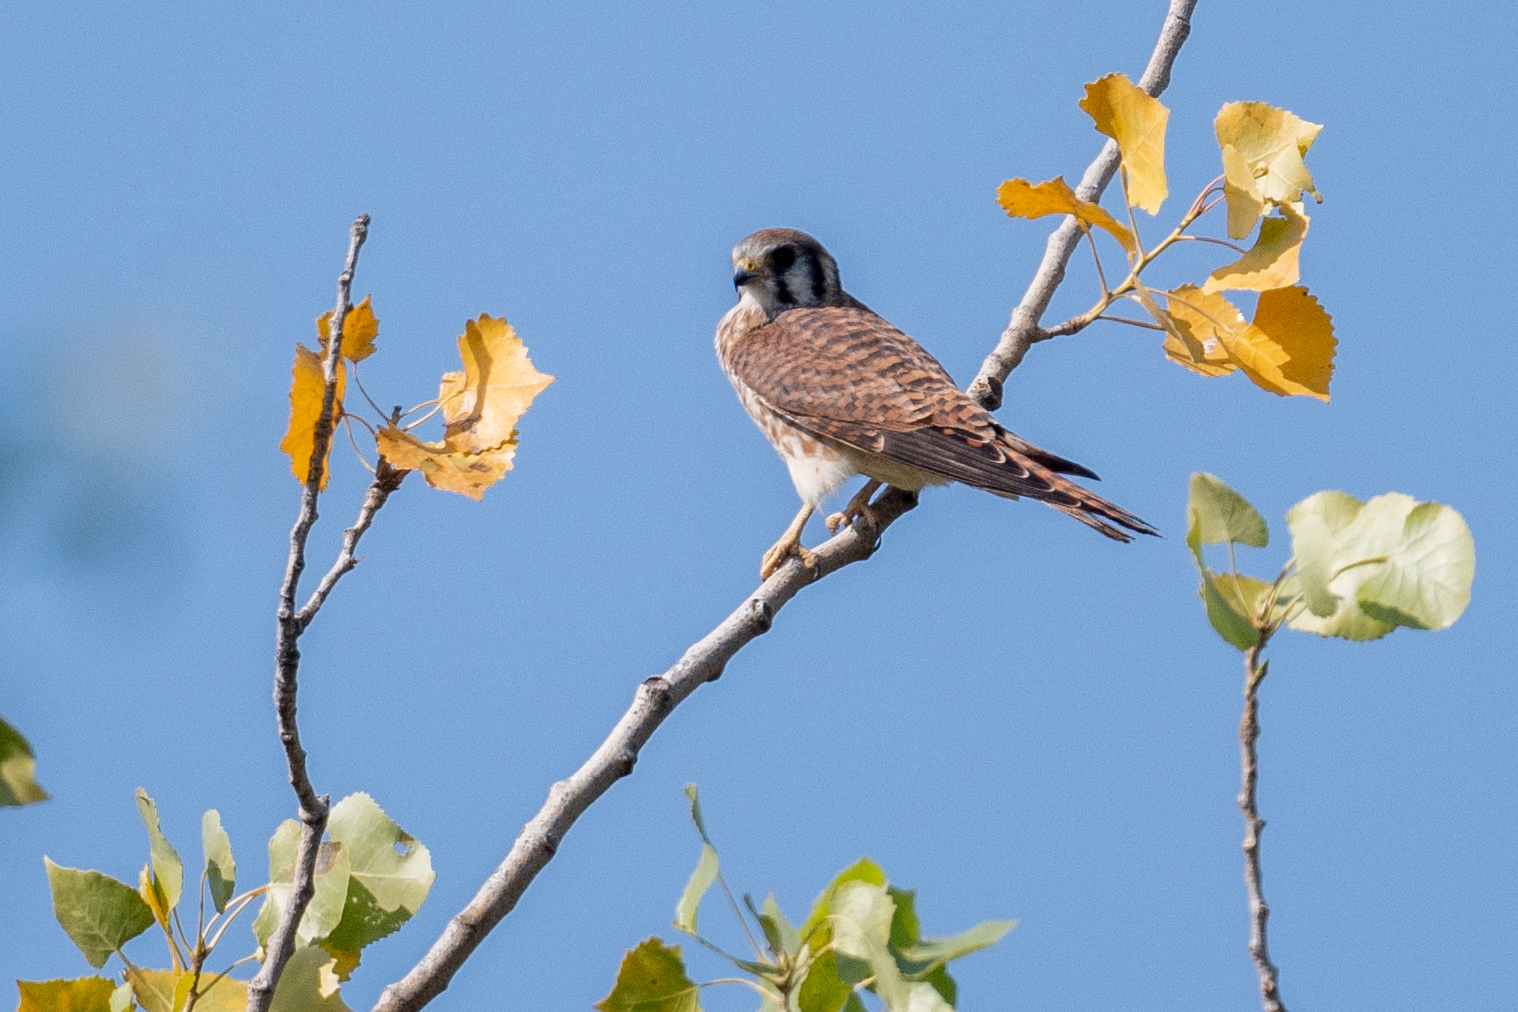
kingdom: Animalia
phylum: Chordata
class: Aves
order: Falconiformes
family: Falconidae
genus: Falco
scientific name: Falco sparverius
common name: American kestrel
